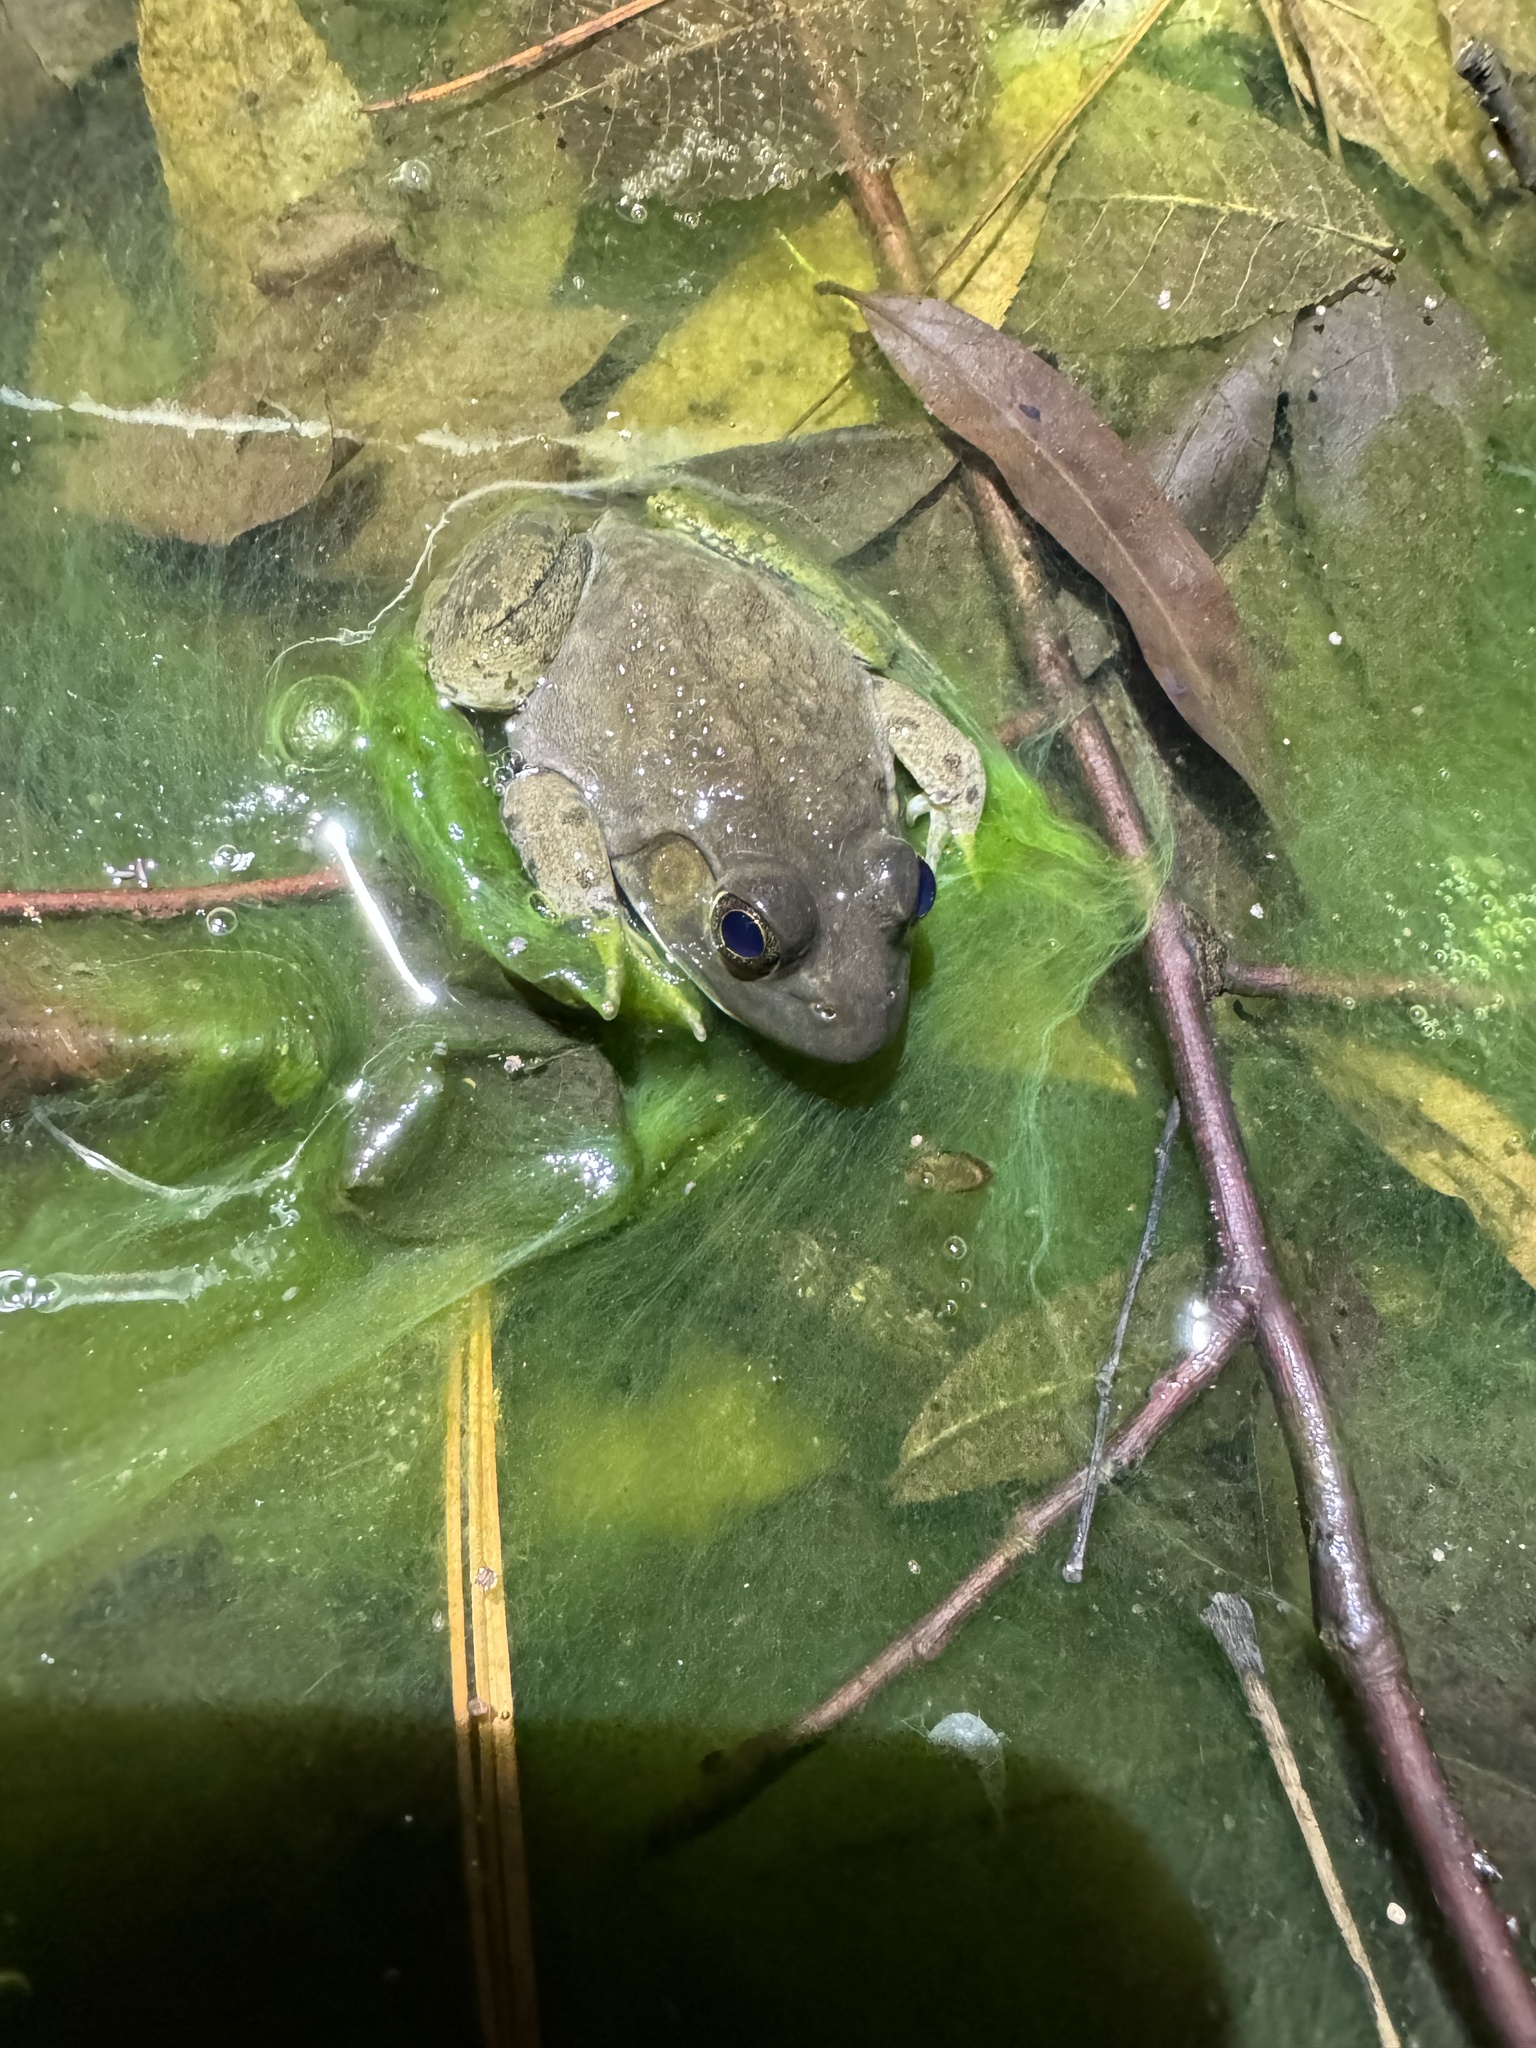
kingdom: Animalia
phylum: Chordata
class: Amphibia
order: Anura
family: Ranidae
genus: Lithobates
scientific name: Lithobates catesbeianus
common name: American bullfrog
